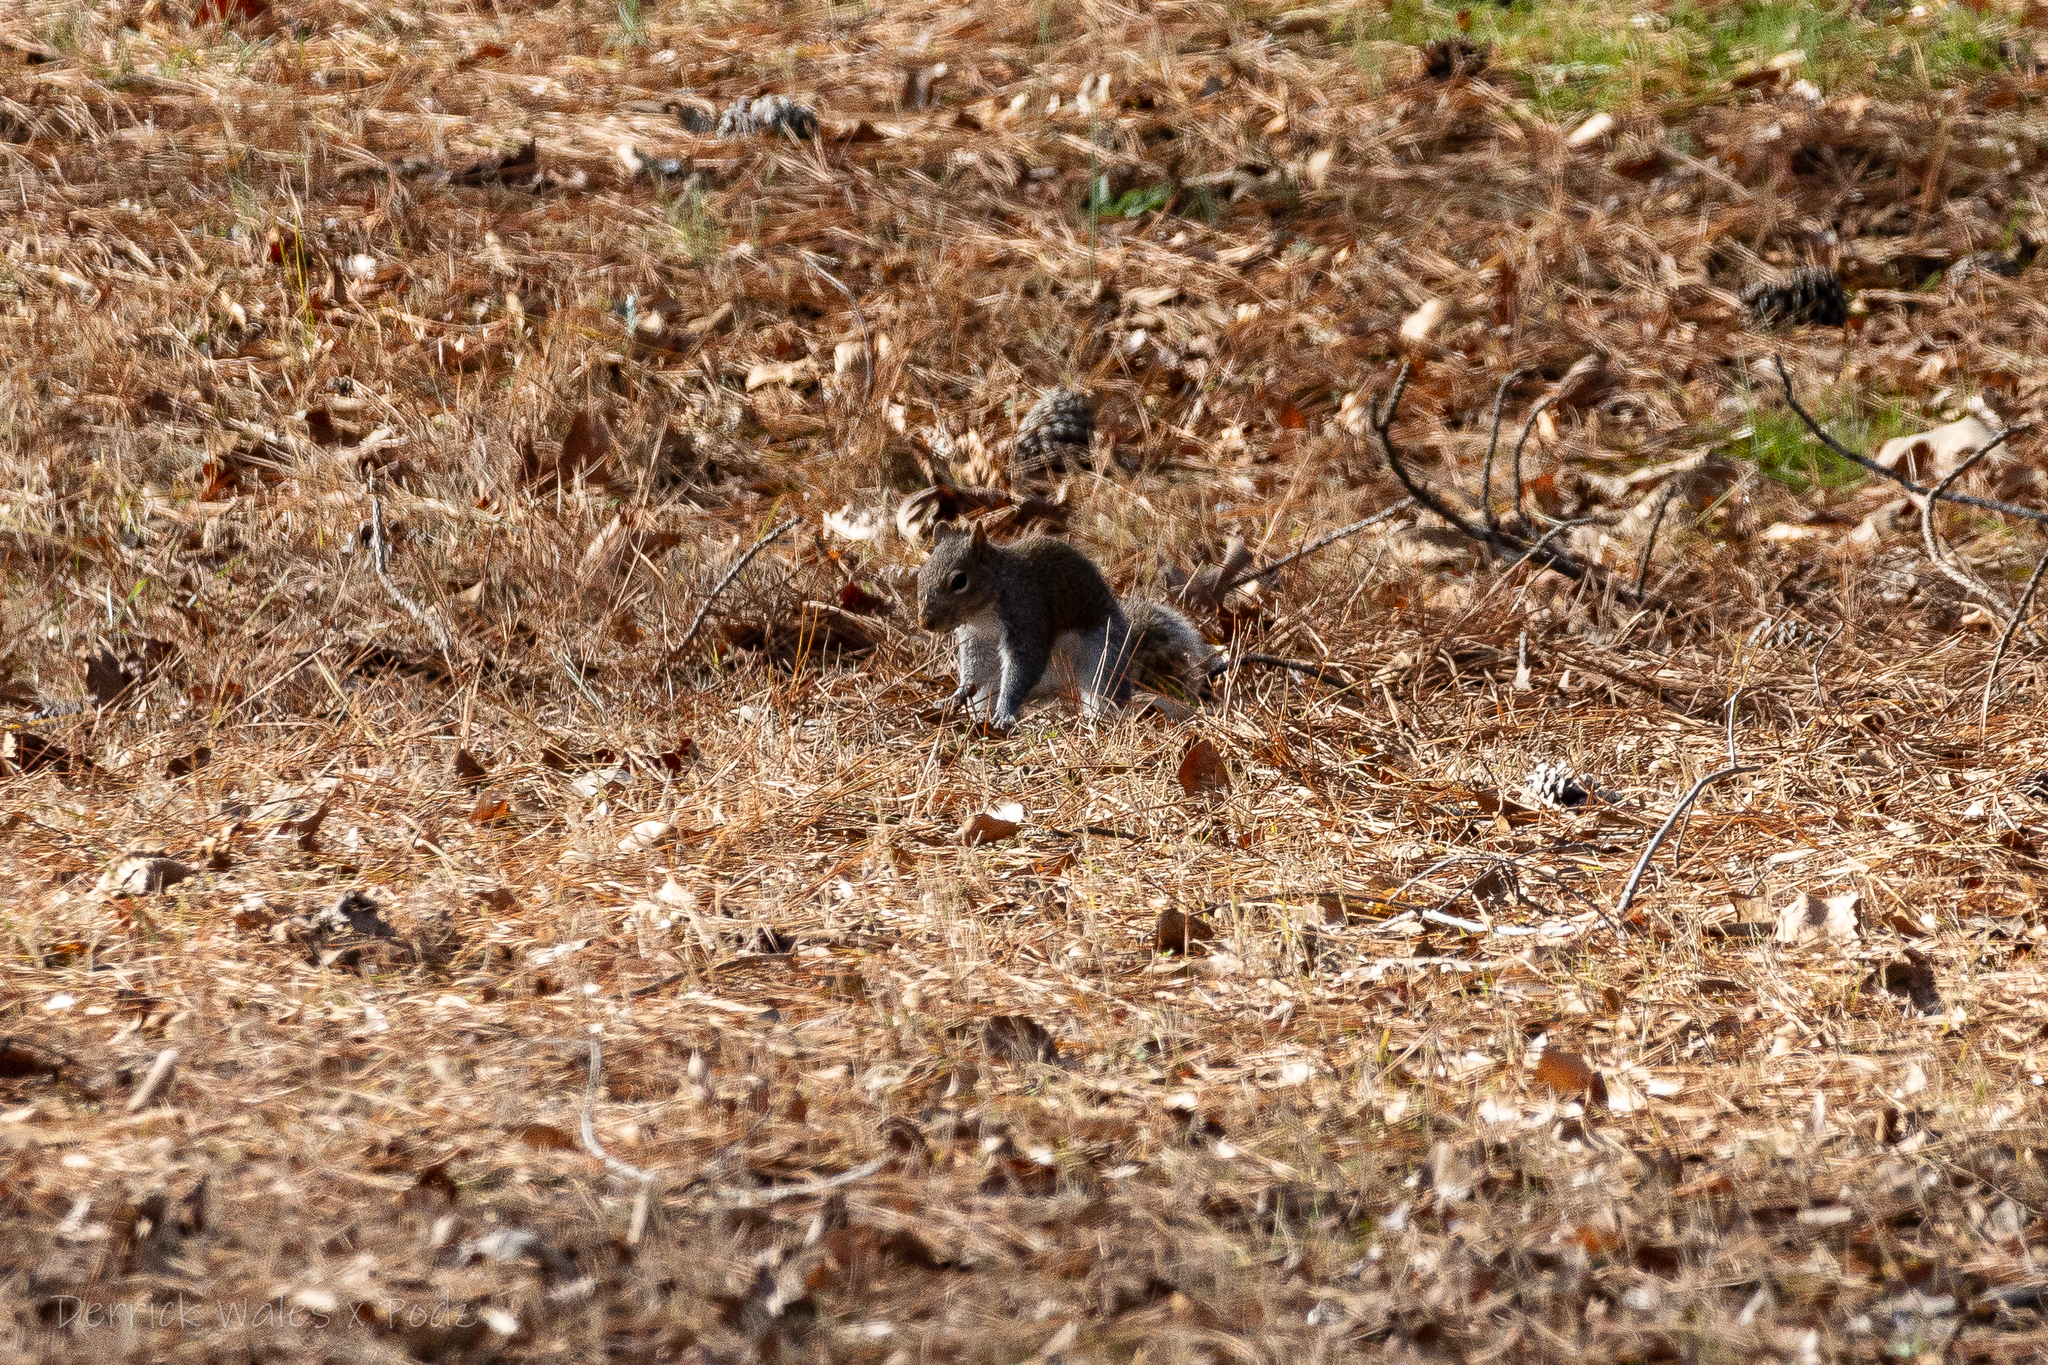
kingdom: Animalia
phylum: Chordata
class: Mammalia
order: Rodentia
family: Sciuridae
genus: Sciurus
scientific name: Sciurus carolinensis
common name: Eastern gray squirrel
